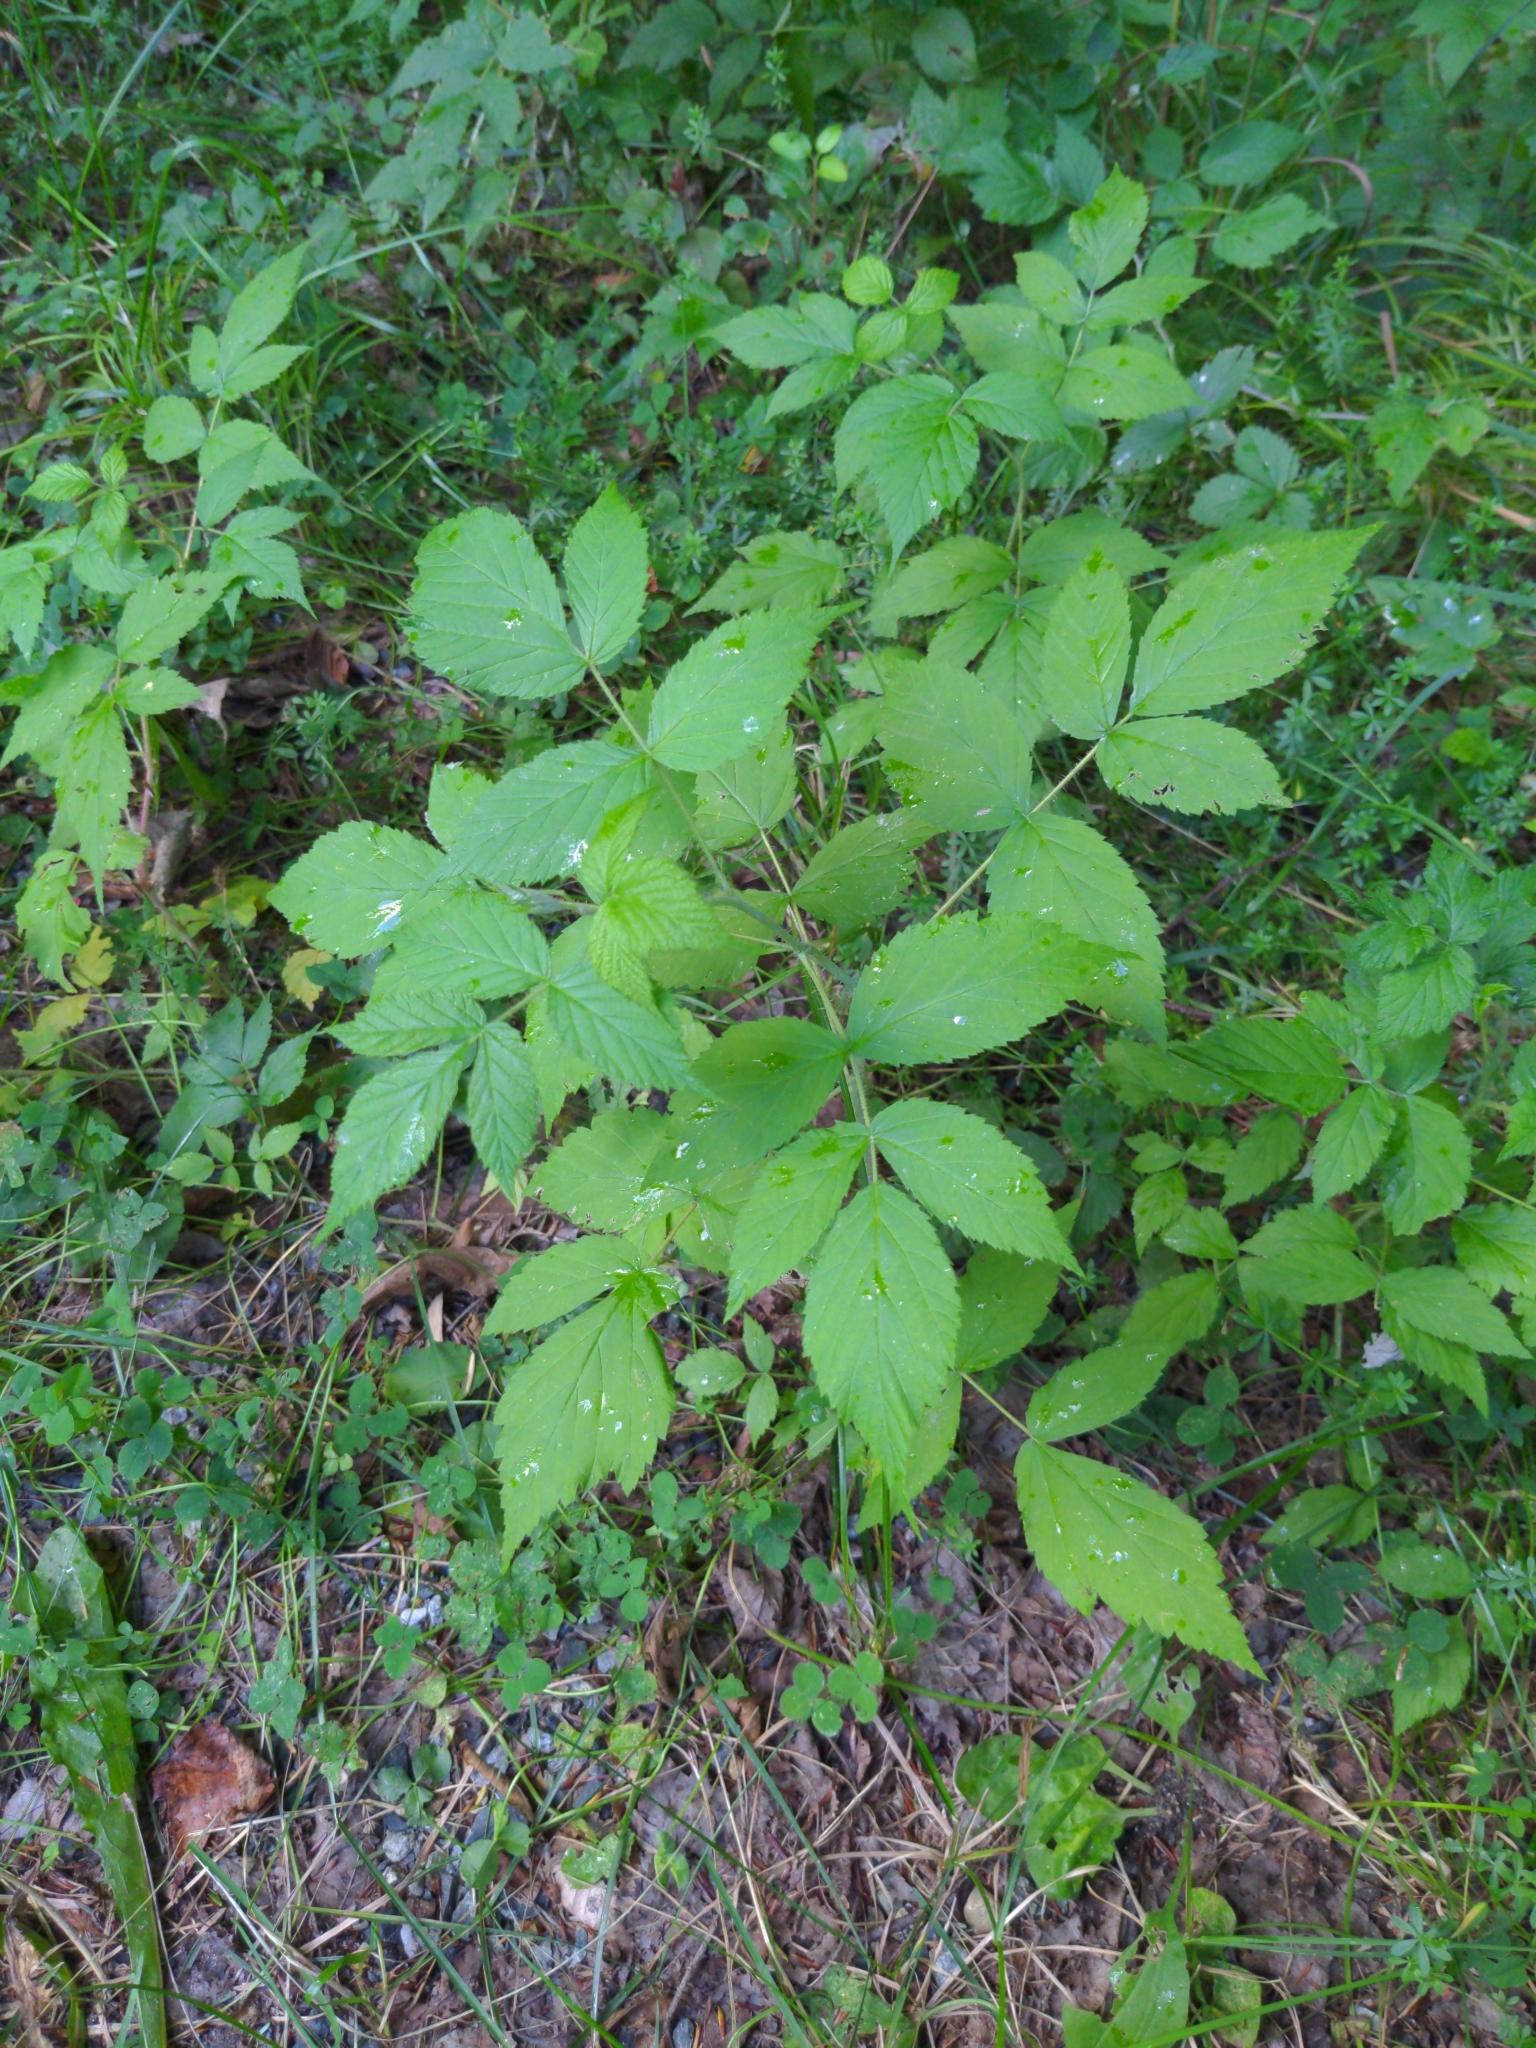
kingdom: Plantae
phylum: Tracheophyta
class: Magnoliopsida
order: Rosales
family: Rosaceae
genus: Rubus
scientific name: Rubus idaeus
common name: Raspberry
